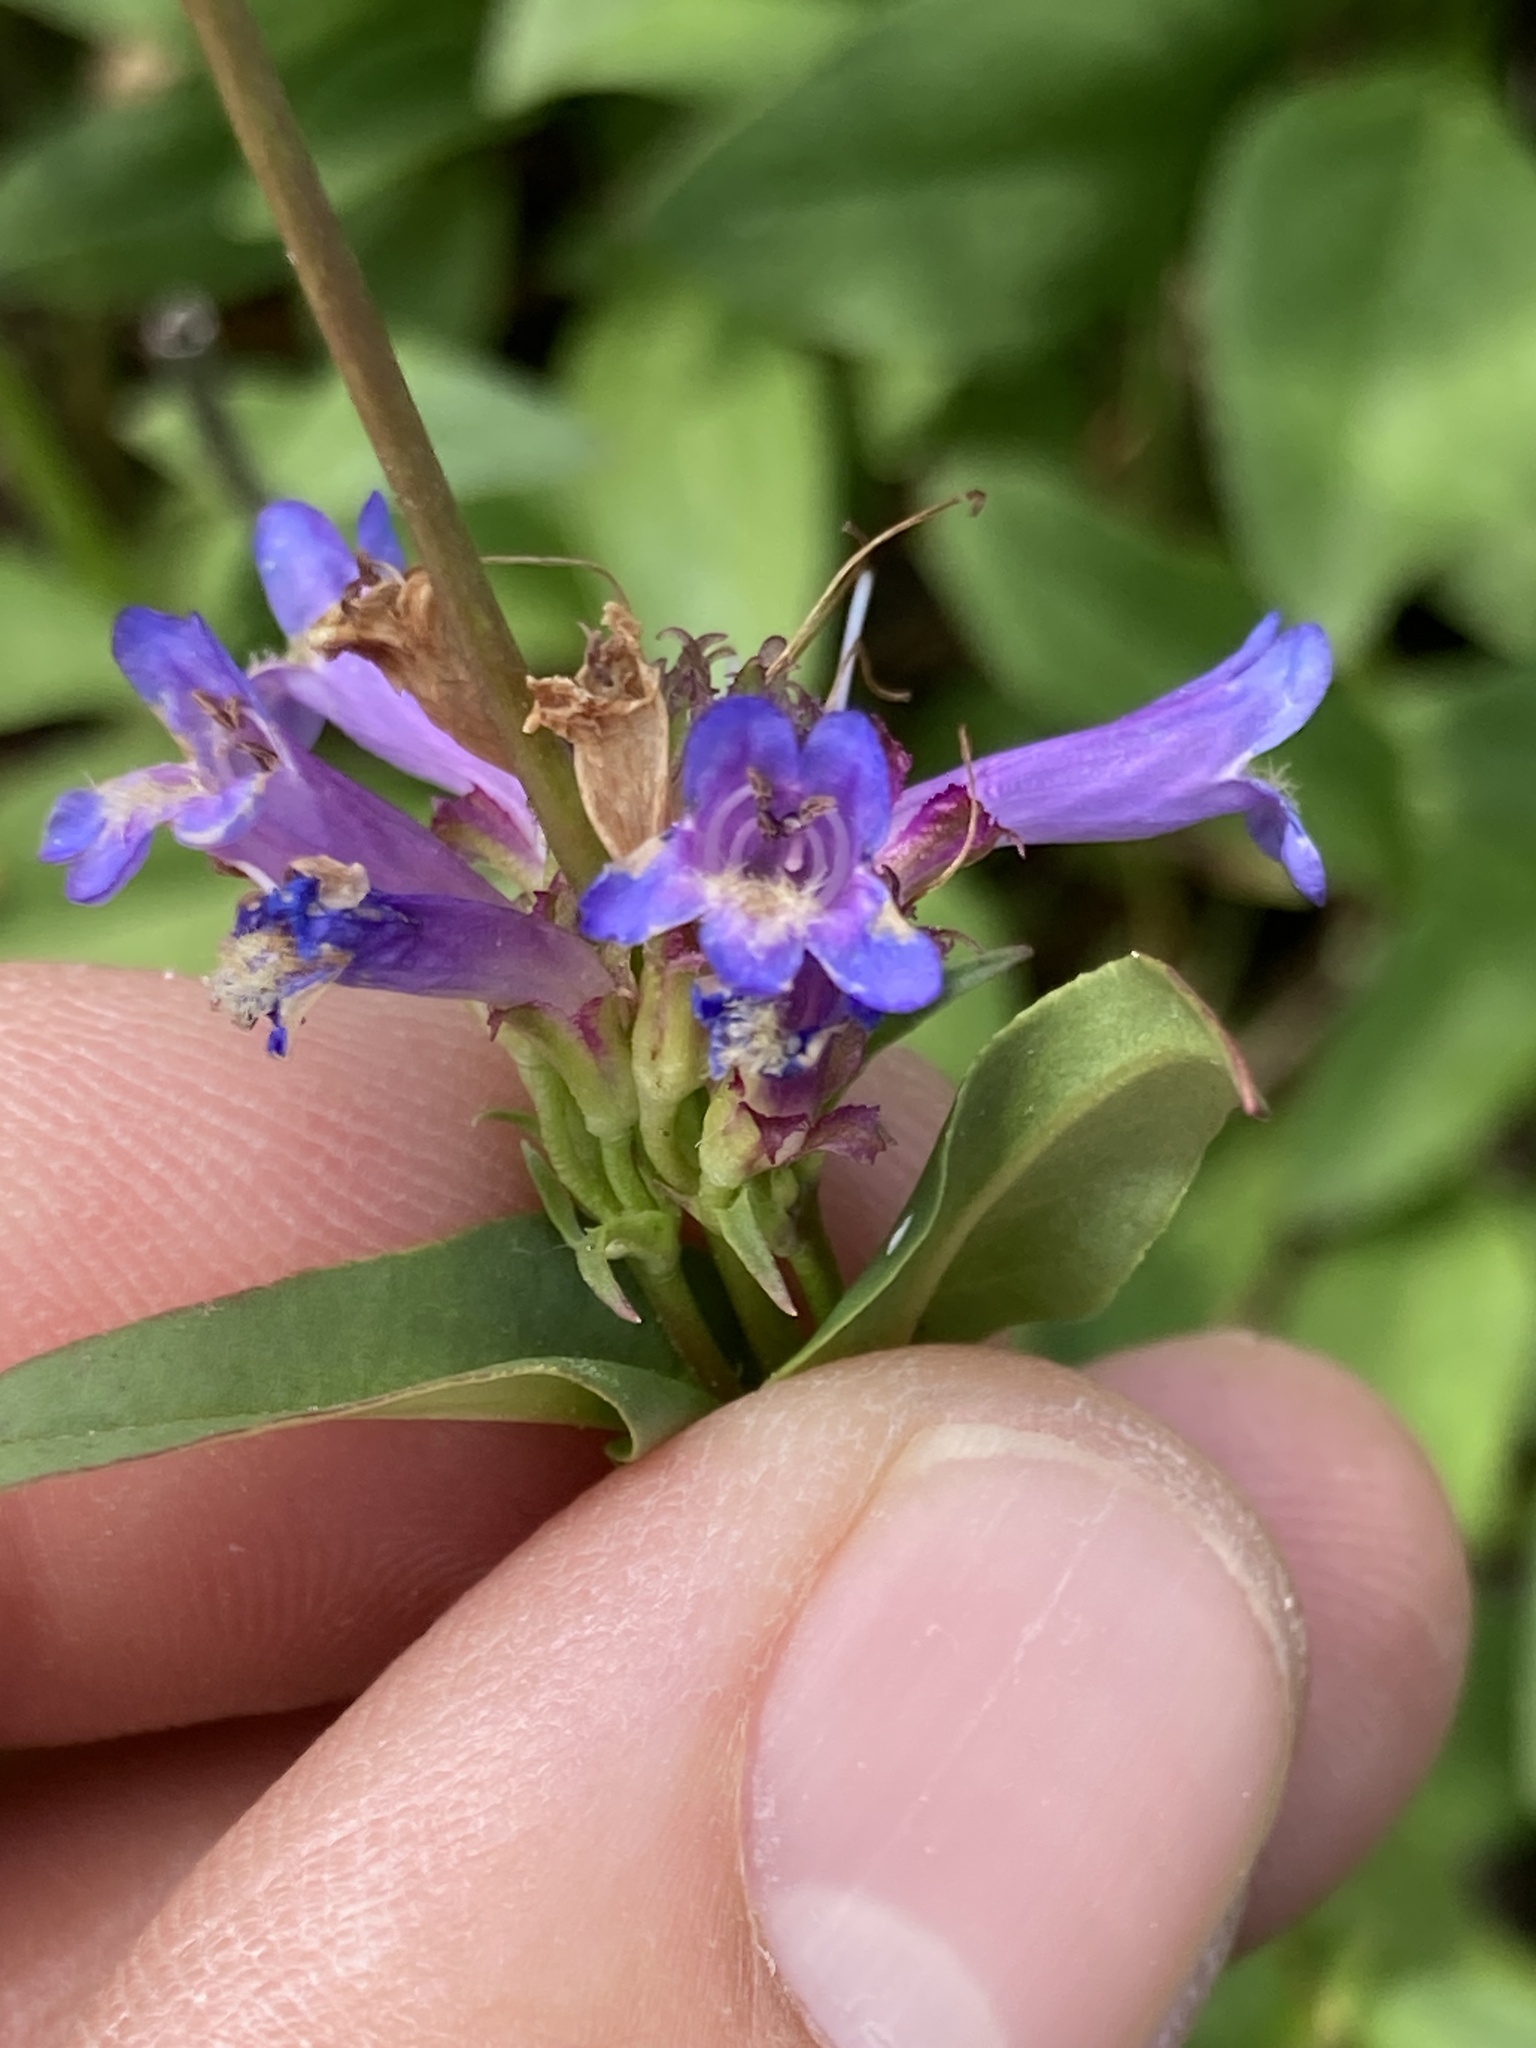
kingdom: Plantae
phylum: Tracheophyta
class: Magnoliopsida
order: Lamiales
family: Plantaginaceae
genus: Penstemon
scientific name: Penstemon rydbergii
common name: Rydberg's beardtongue
